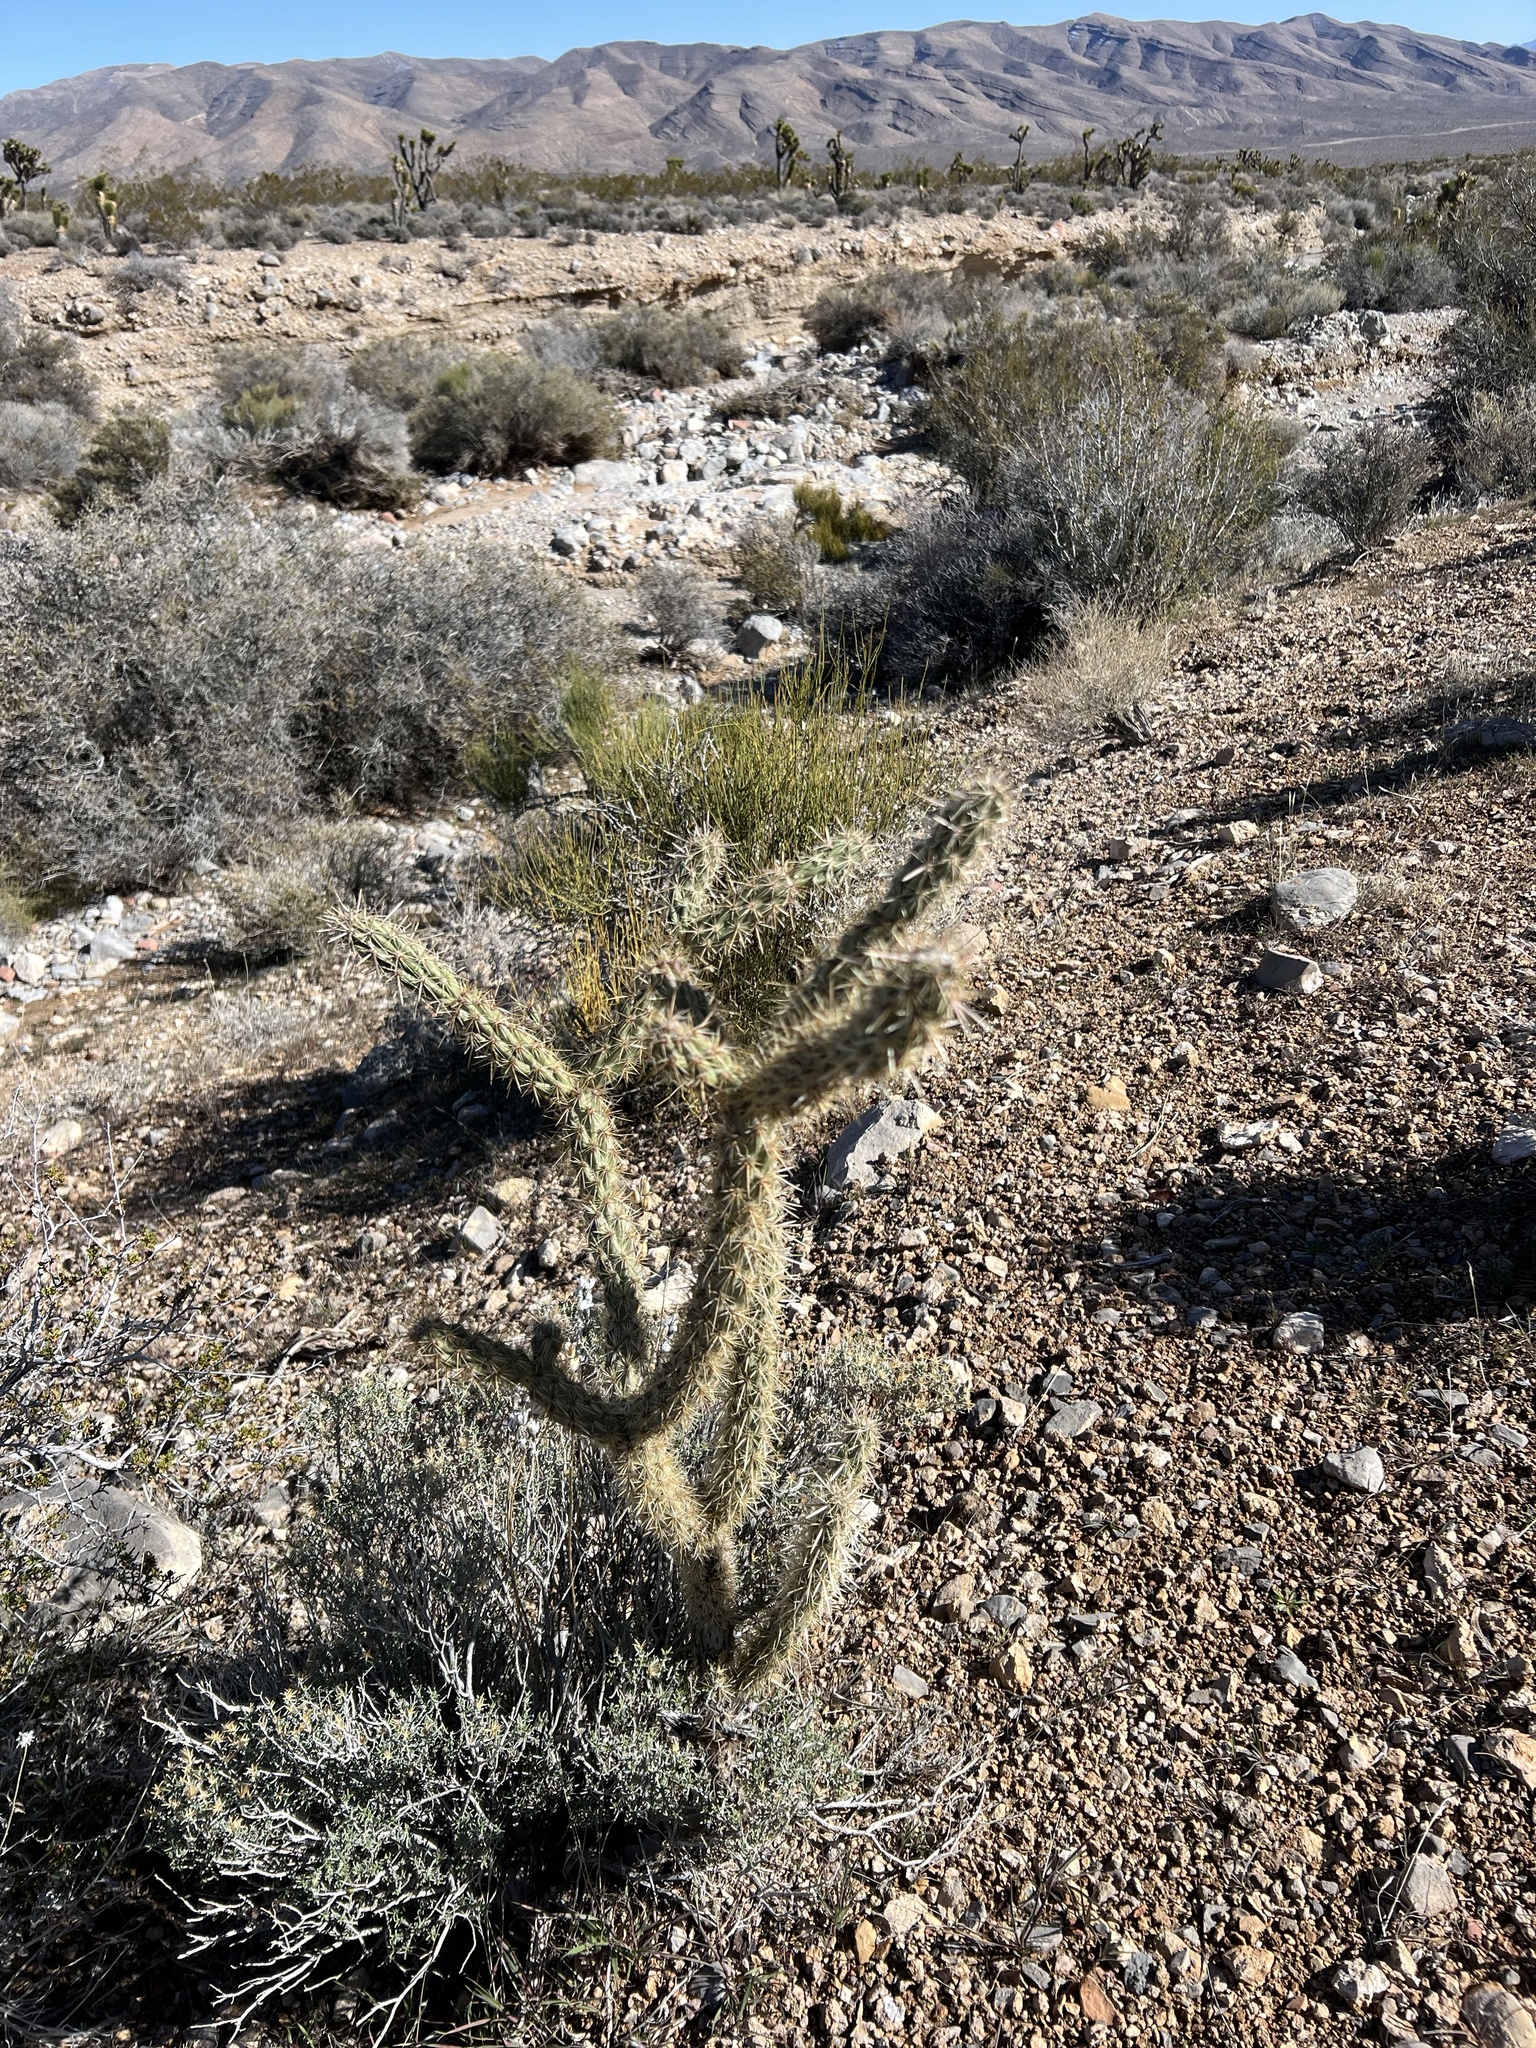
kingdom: Plantae
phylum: Tracheophyta
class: Magnoliopsida
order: Caryophyllales
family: Cactaceae
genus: Cylindropuntia
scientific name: Cylindropuntia acanthocarpa
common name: Buckhorn cholla
